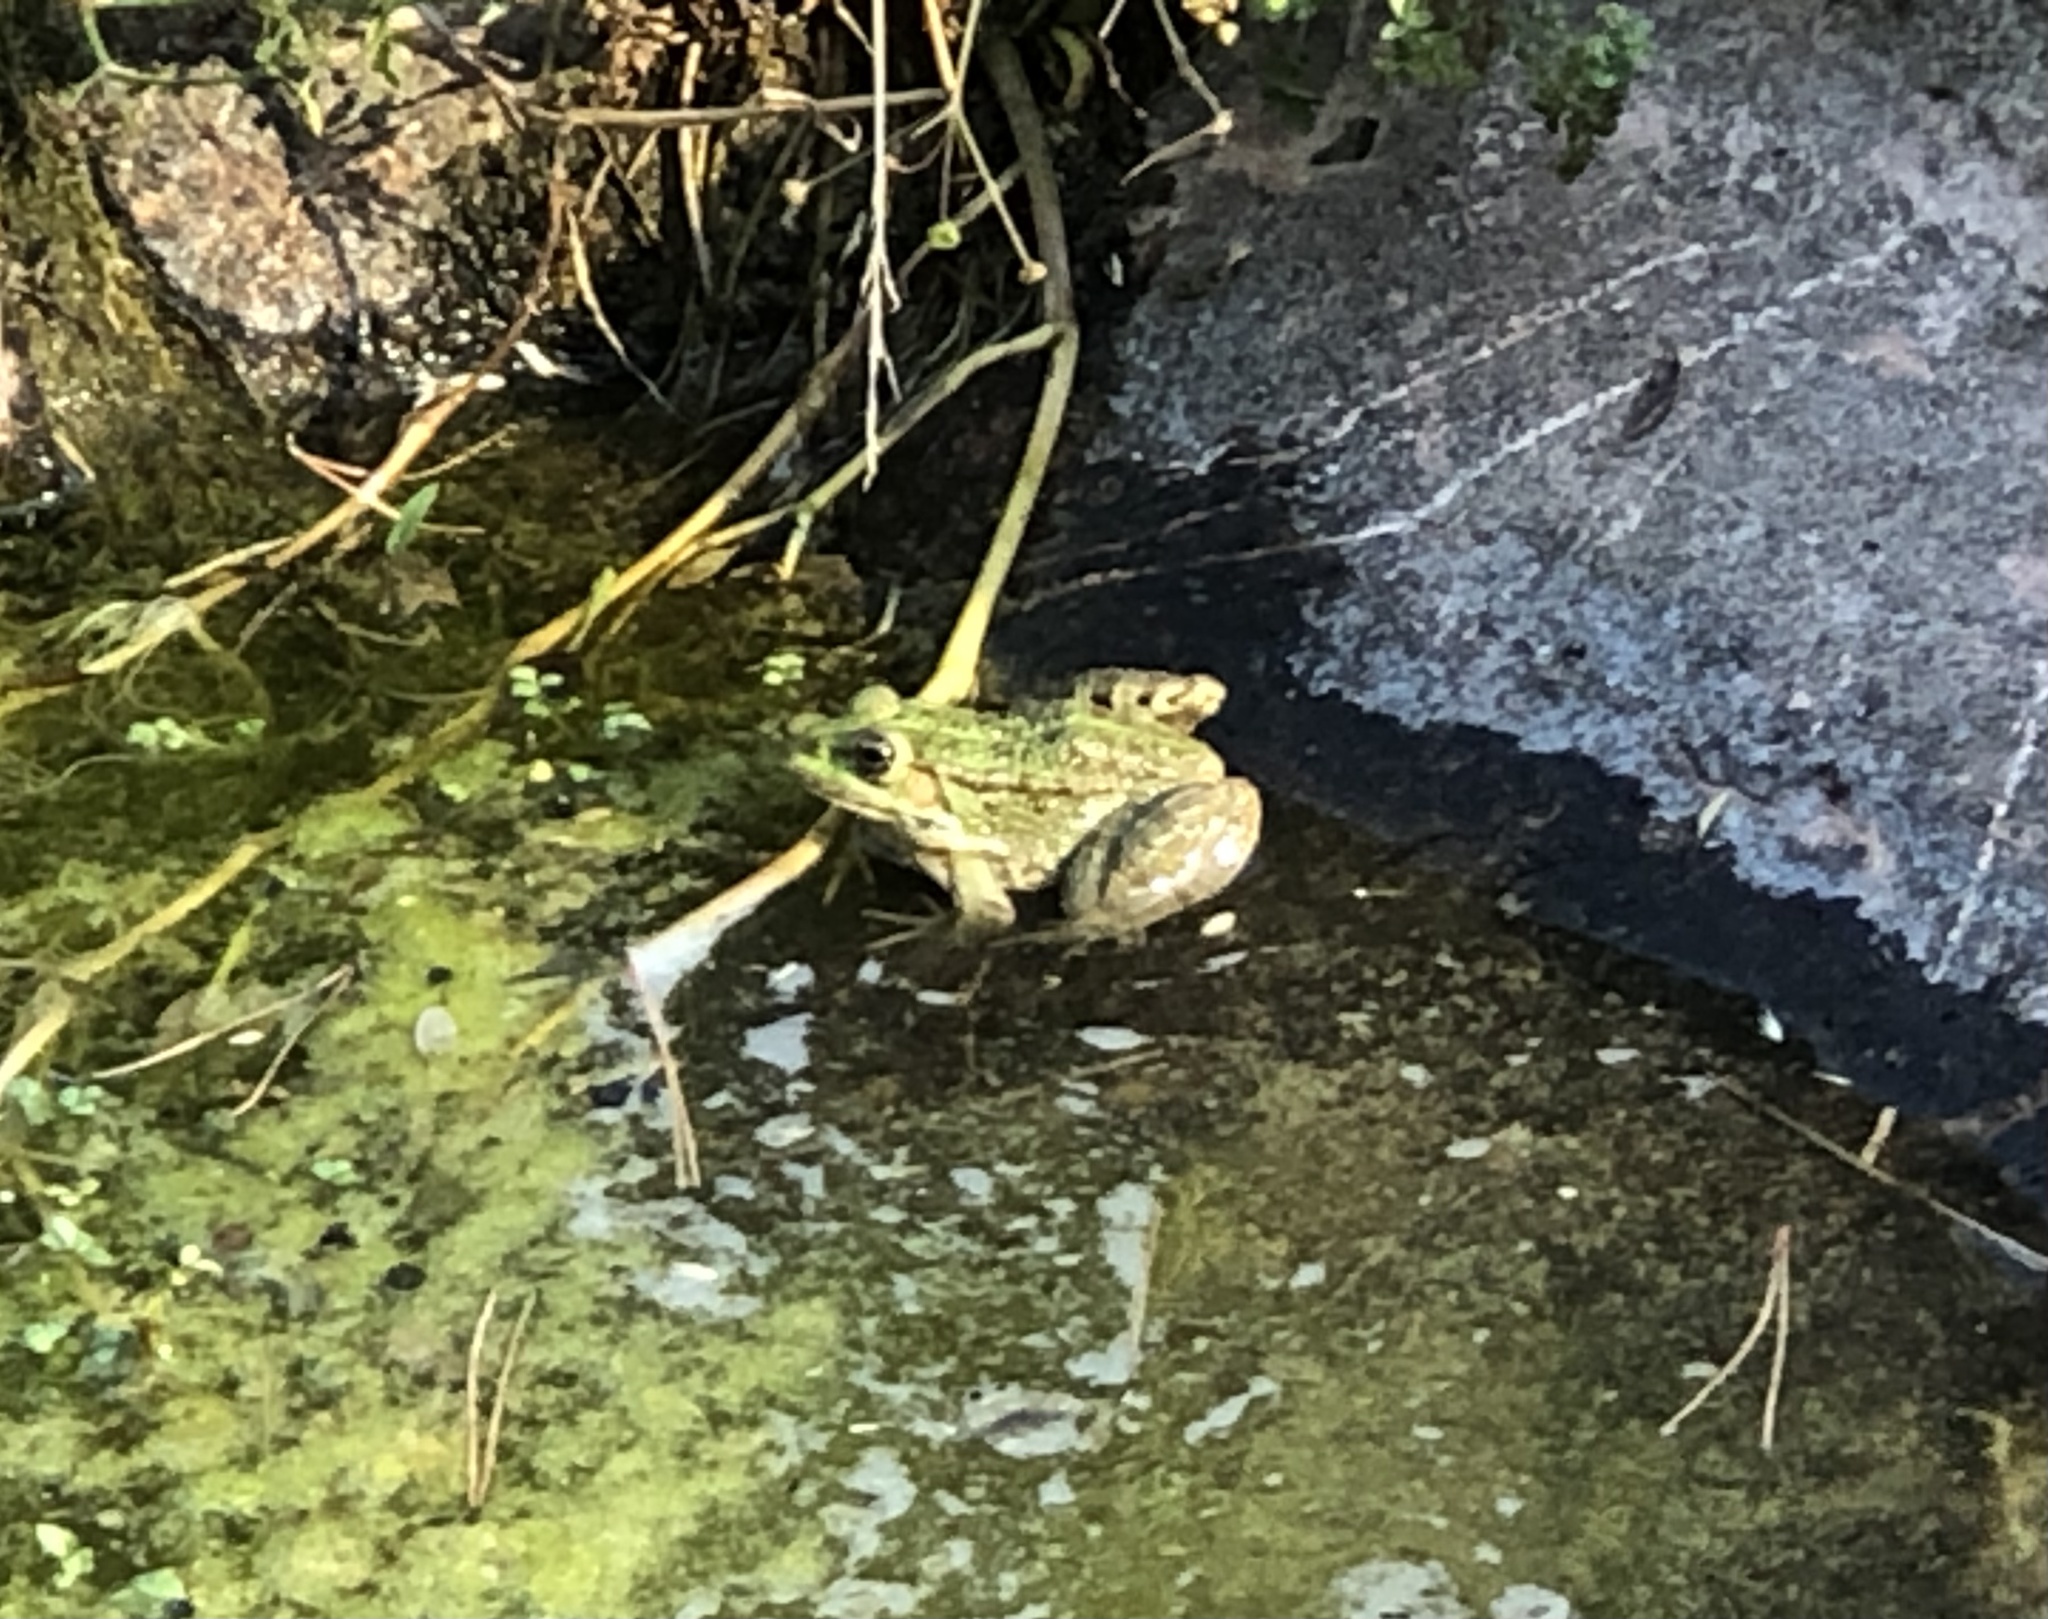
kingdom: Animalia
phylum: Chordata
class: Amphibia
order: Anura
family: Ranidae
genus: Pelophylax
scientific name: Pelophylax perezi
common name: Perez's frog
